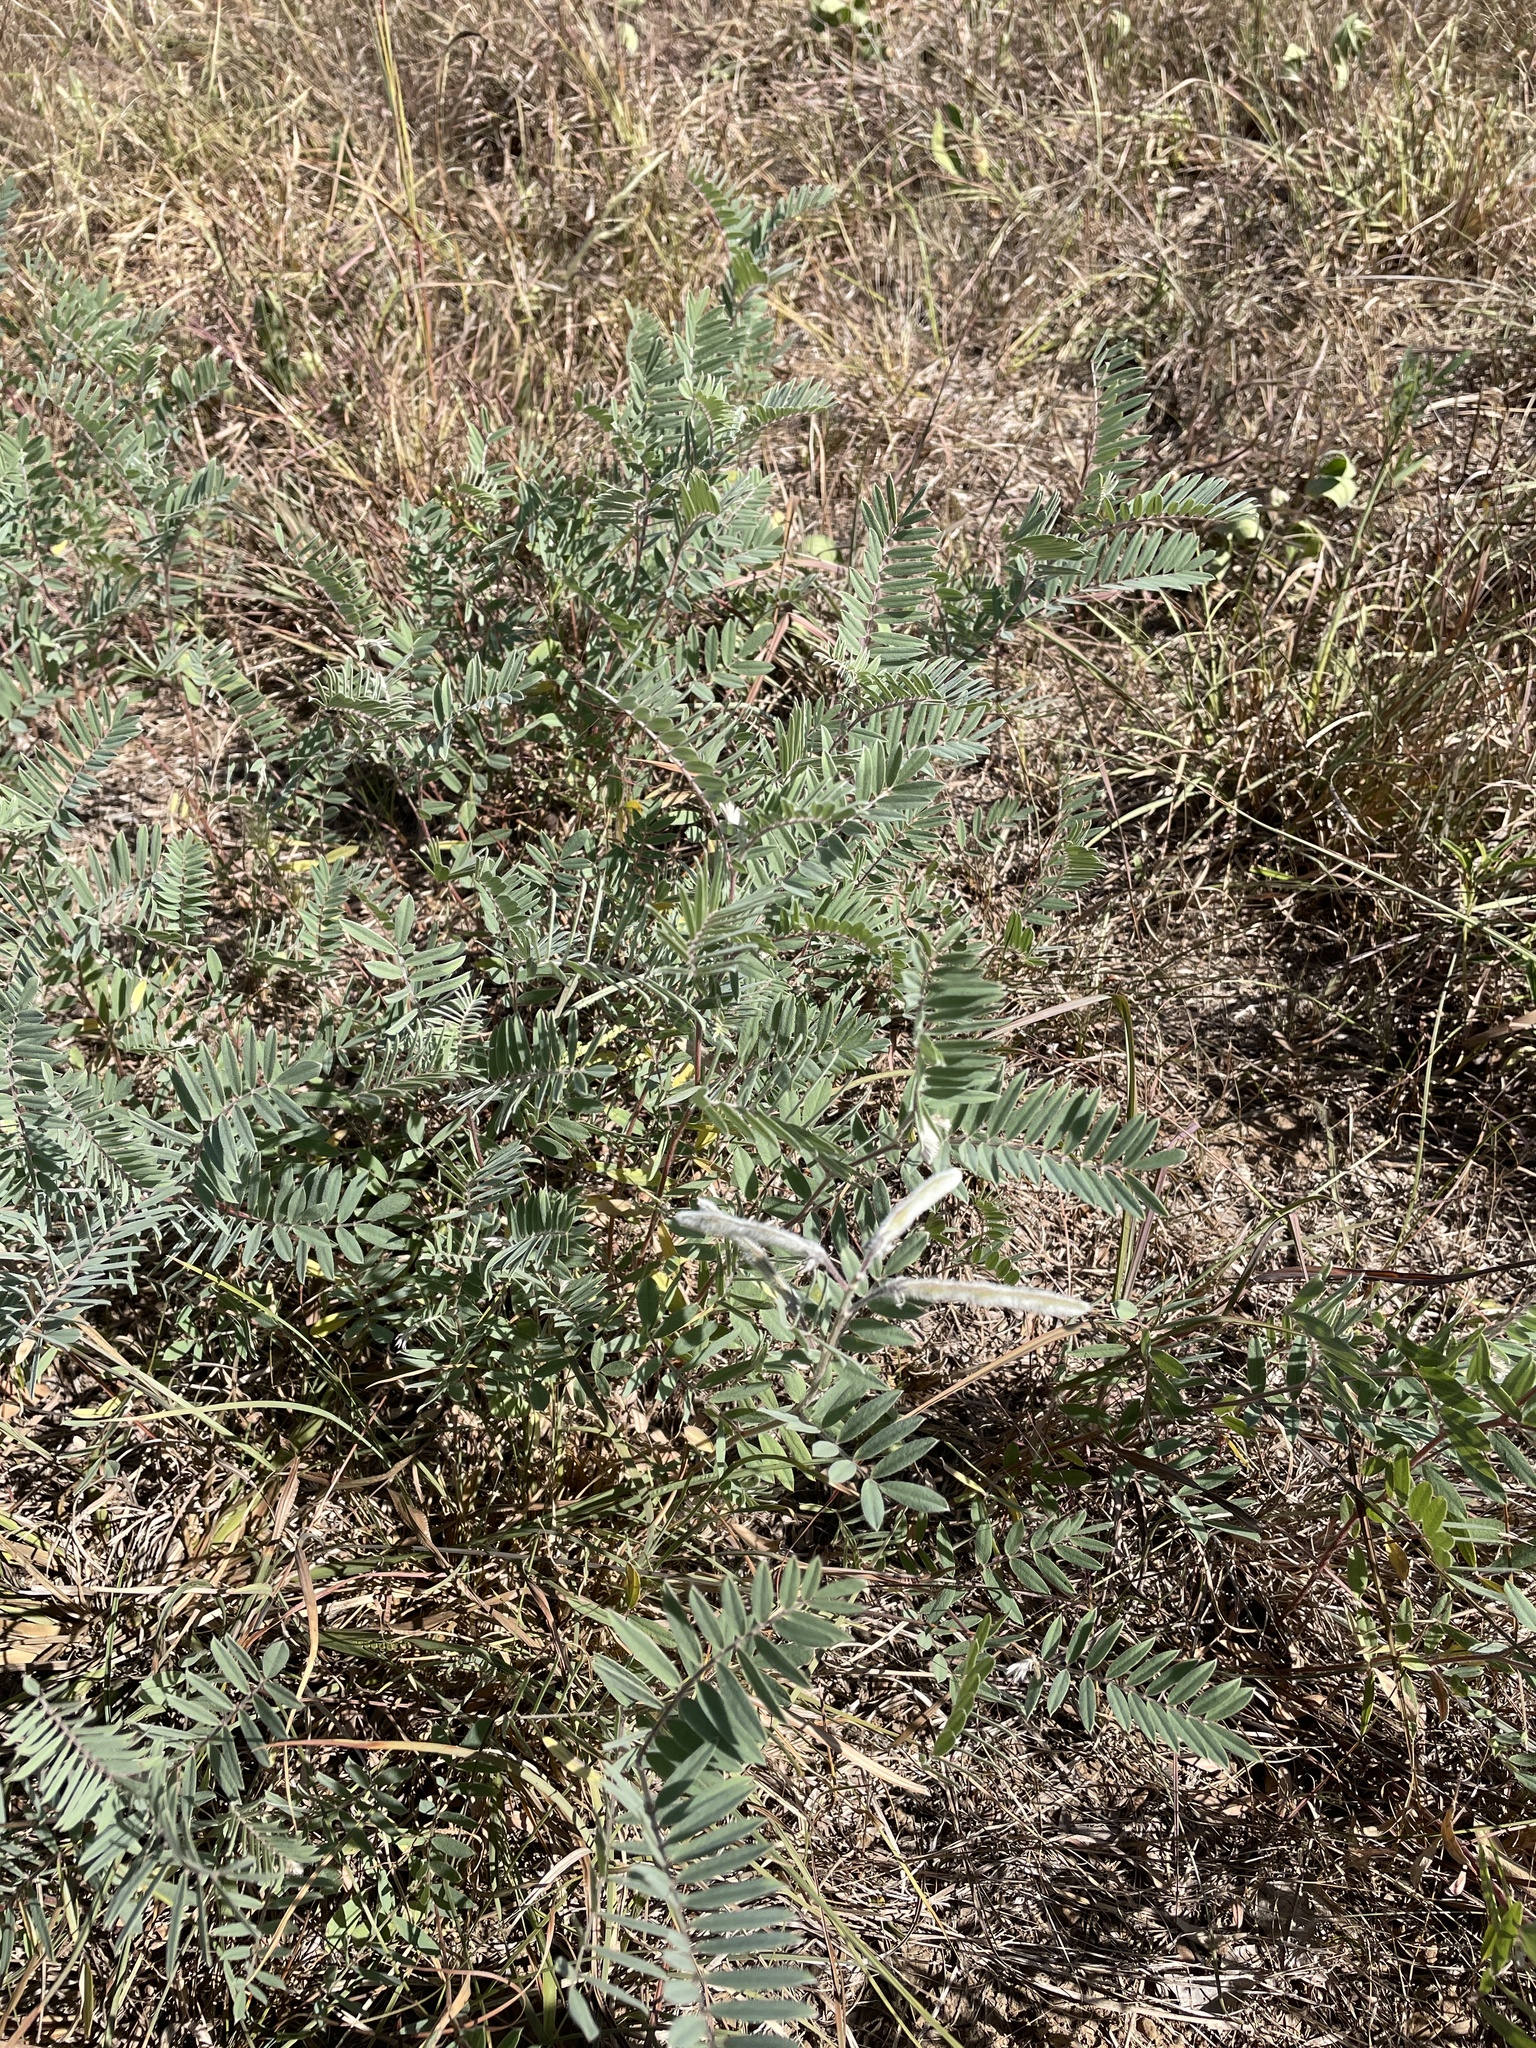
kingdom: Plantae
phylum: Tracheophyta
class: Magnoliopsida
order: Fabales
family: Fabaceae
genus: Tephrosia
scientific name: Tephrosia virginiana
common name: Rabbit-pea
